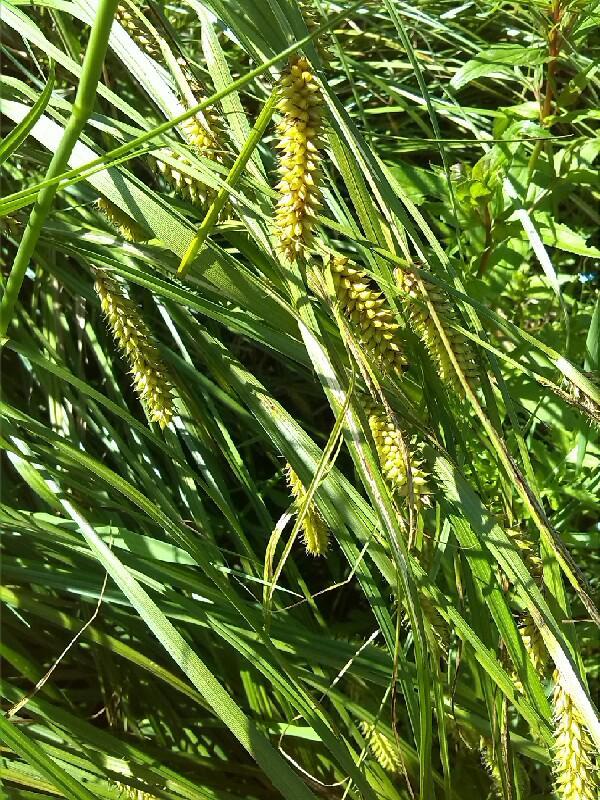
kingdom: Plantae
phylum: Tracheophyta
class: Liliopsida
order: Poales
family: Cyperaceae
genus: Carex
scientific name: Carex vesicaria
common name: Bladder-sedge
